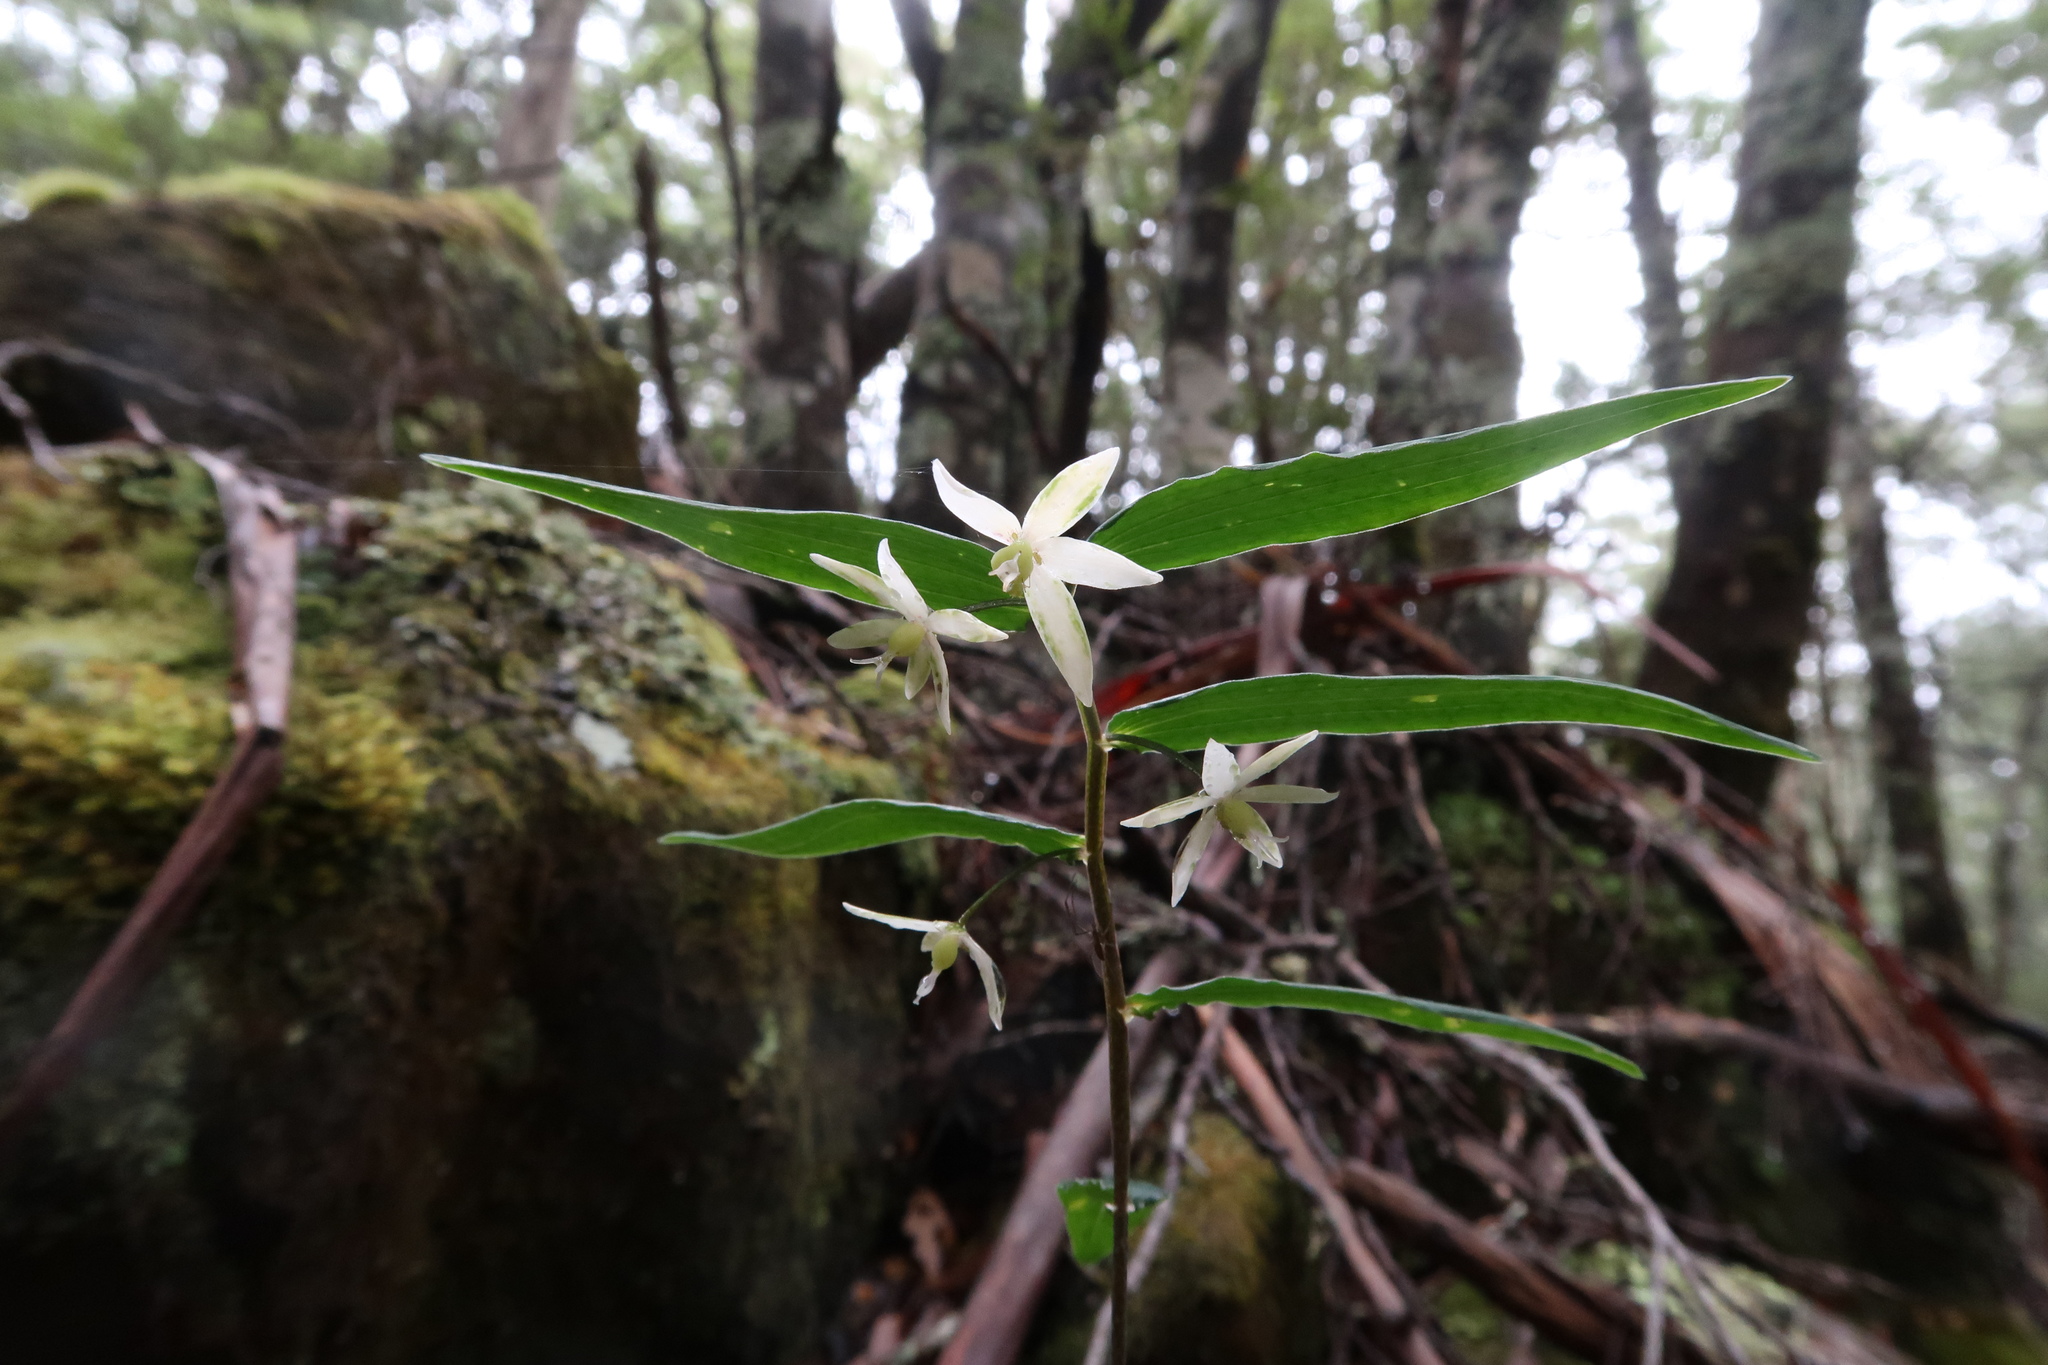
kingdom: Plantae
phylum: Tracheophyta
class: Liliopsida
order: Liliales
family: Alstroemeriaceae
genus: Drymophila
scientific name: Drymophila cyanocarpa
